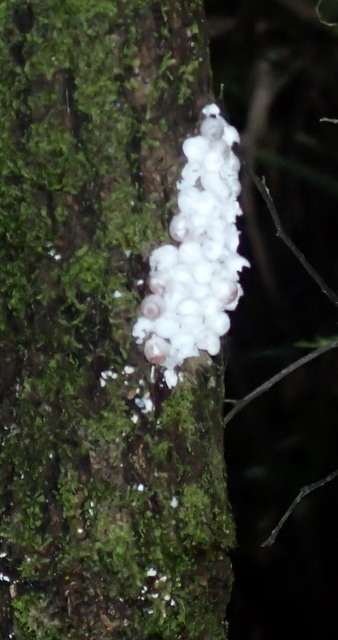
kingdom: Animalia
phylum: Mollusca
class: Gastropoda
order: Architaenioglossa
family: Ampullariidae
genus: Pomacea
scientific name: Pomacea paludosa
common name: Florida applesnail
